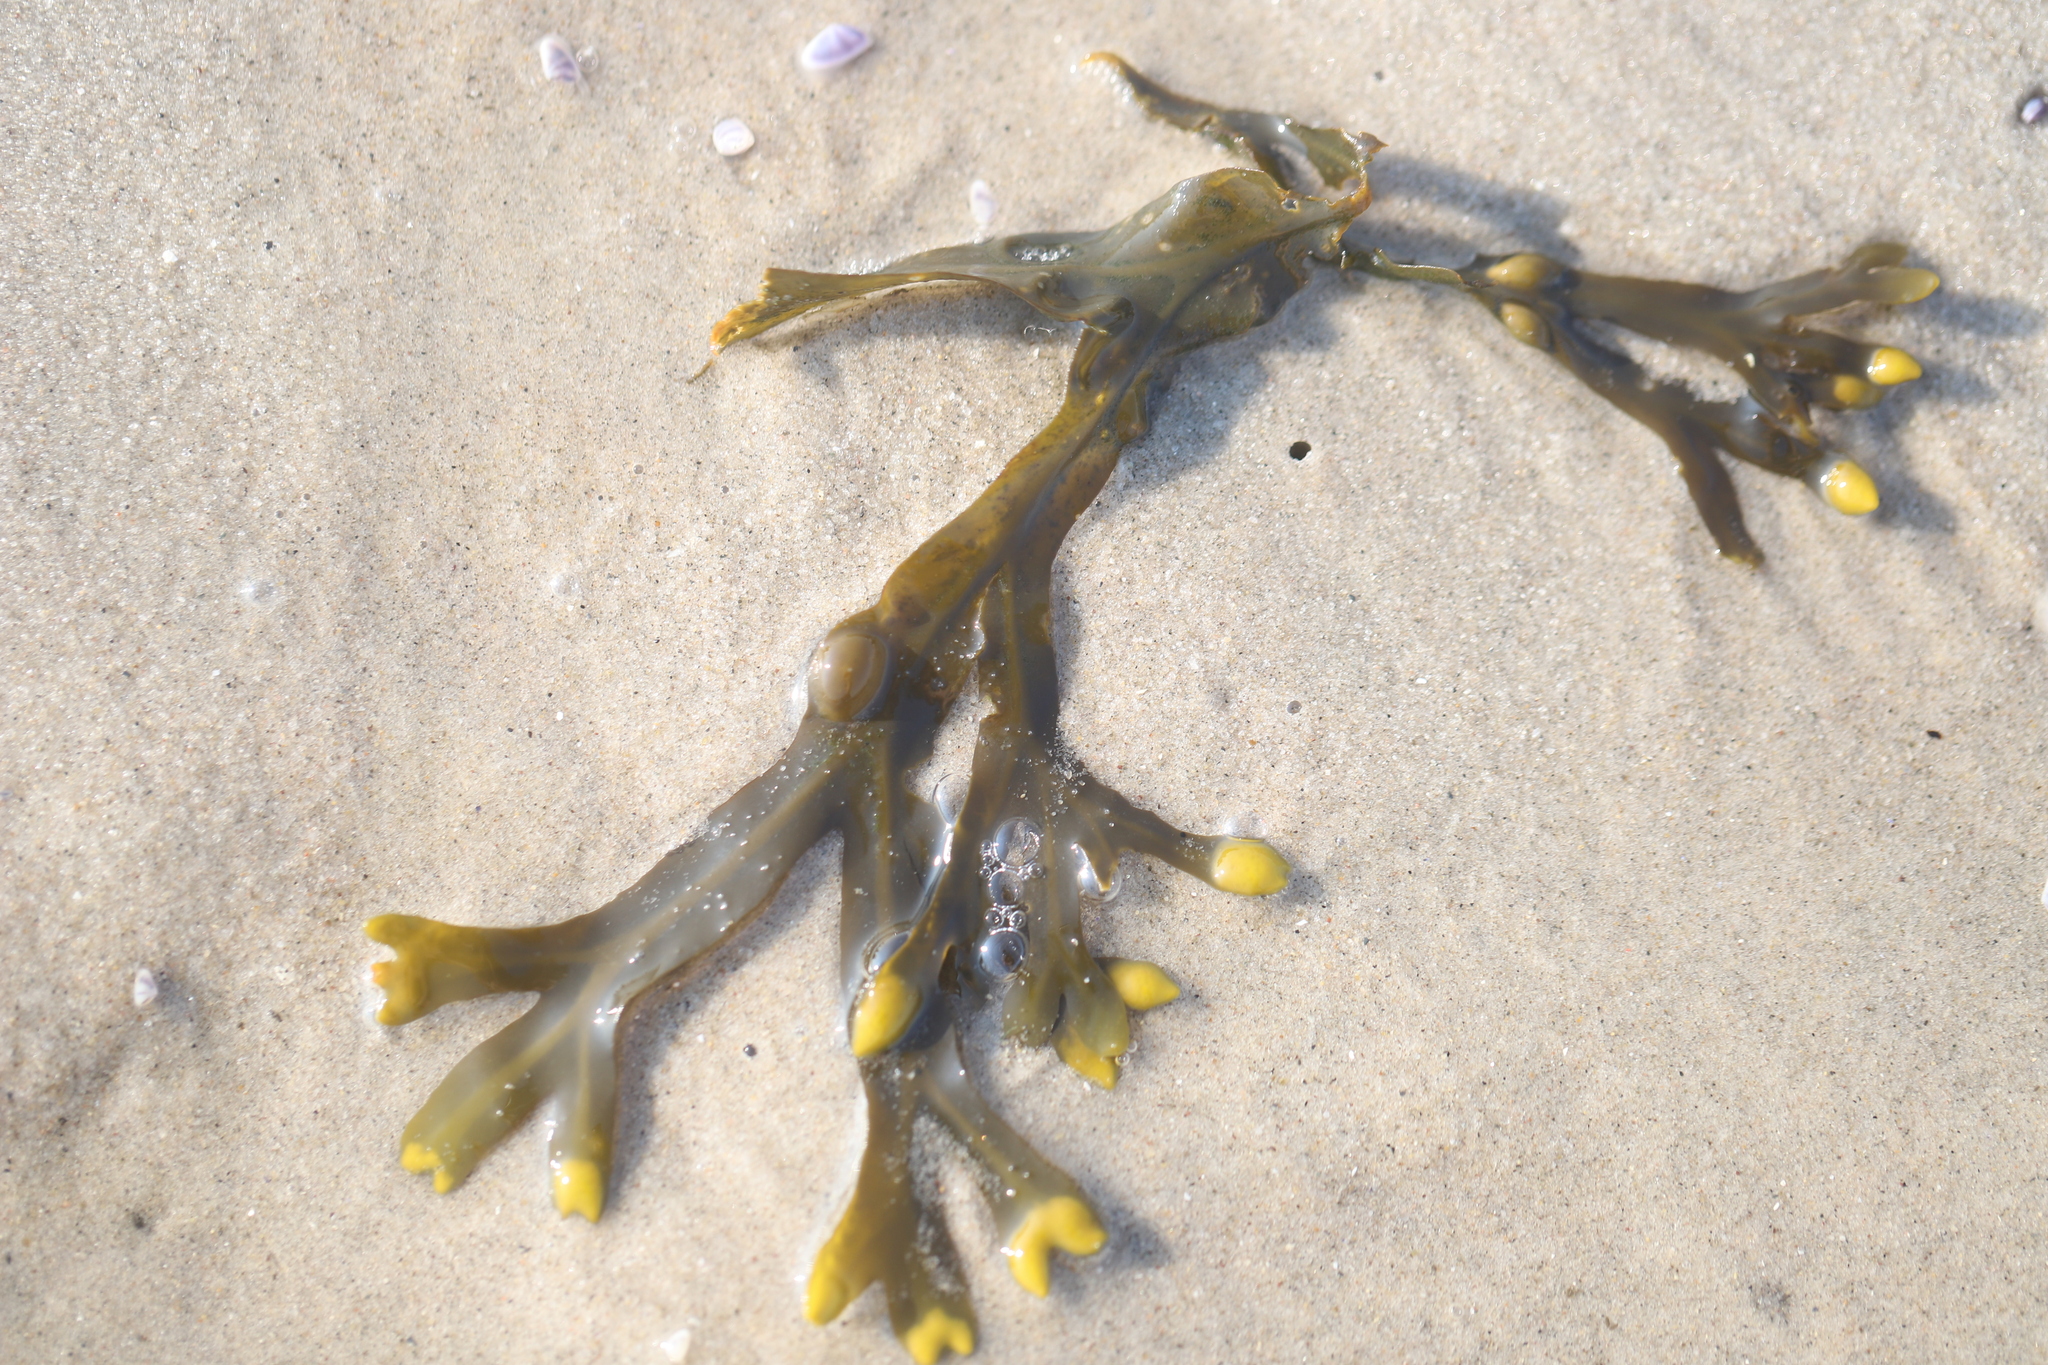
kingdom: Chromista
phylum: Ochrophyta
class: Phaeophyceae
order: Fucales
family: Fucaceae
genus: Fucus
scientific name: Fucus vesiculosus
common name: Bladder wrack
